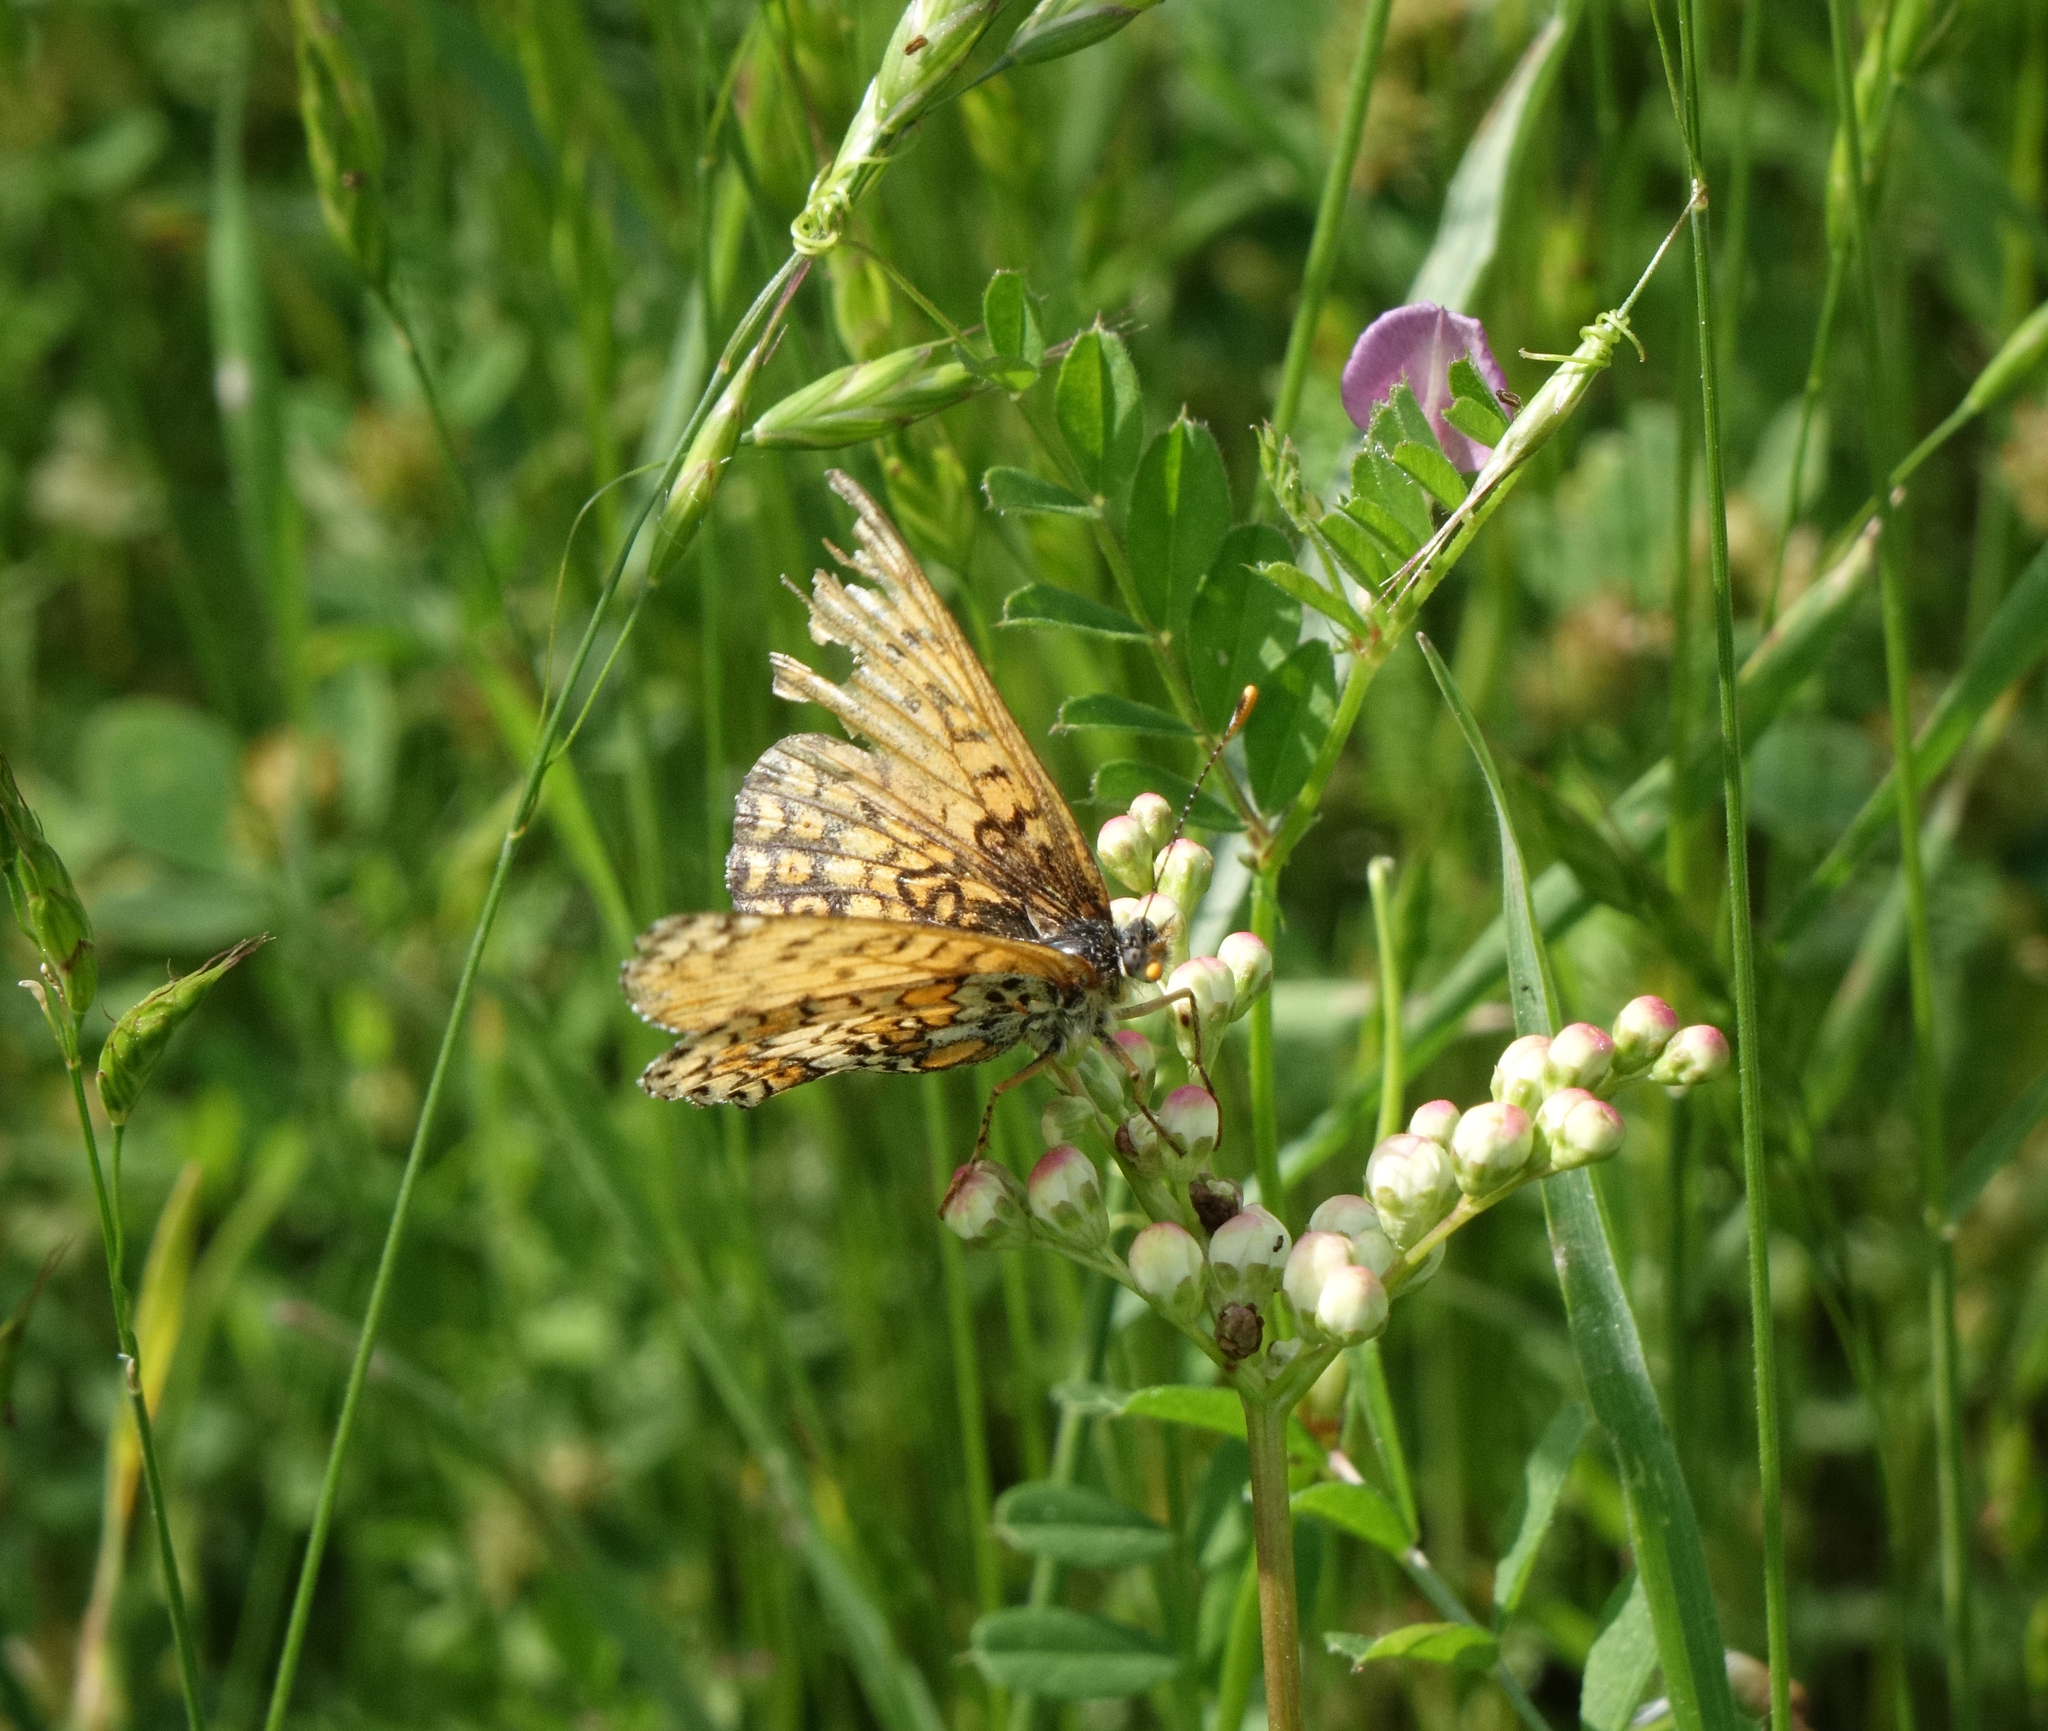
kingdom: Animalia
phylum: Arthropoda
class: Insecta
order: Lepidoptera
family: Nymphalidae
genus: Melitaea
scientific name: Melitaea cinxia
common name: Glanville fritillary
